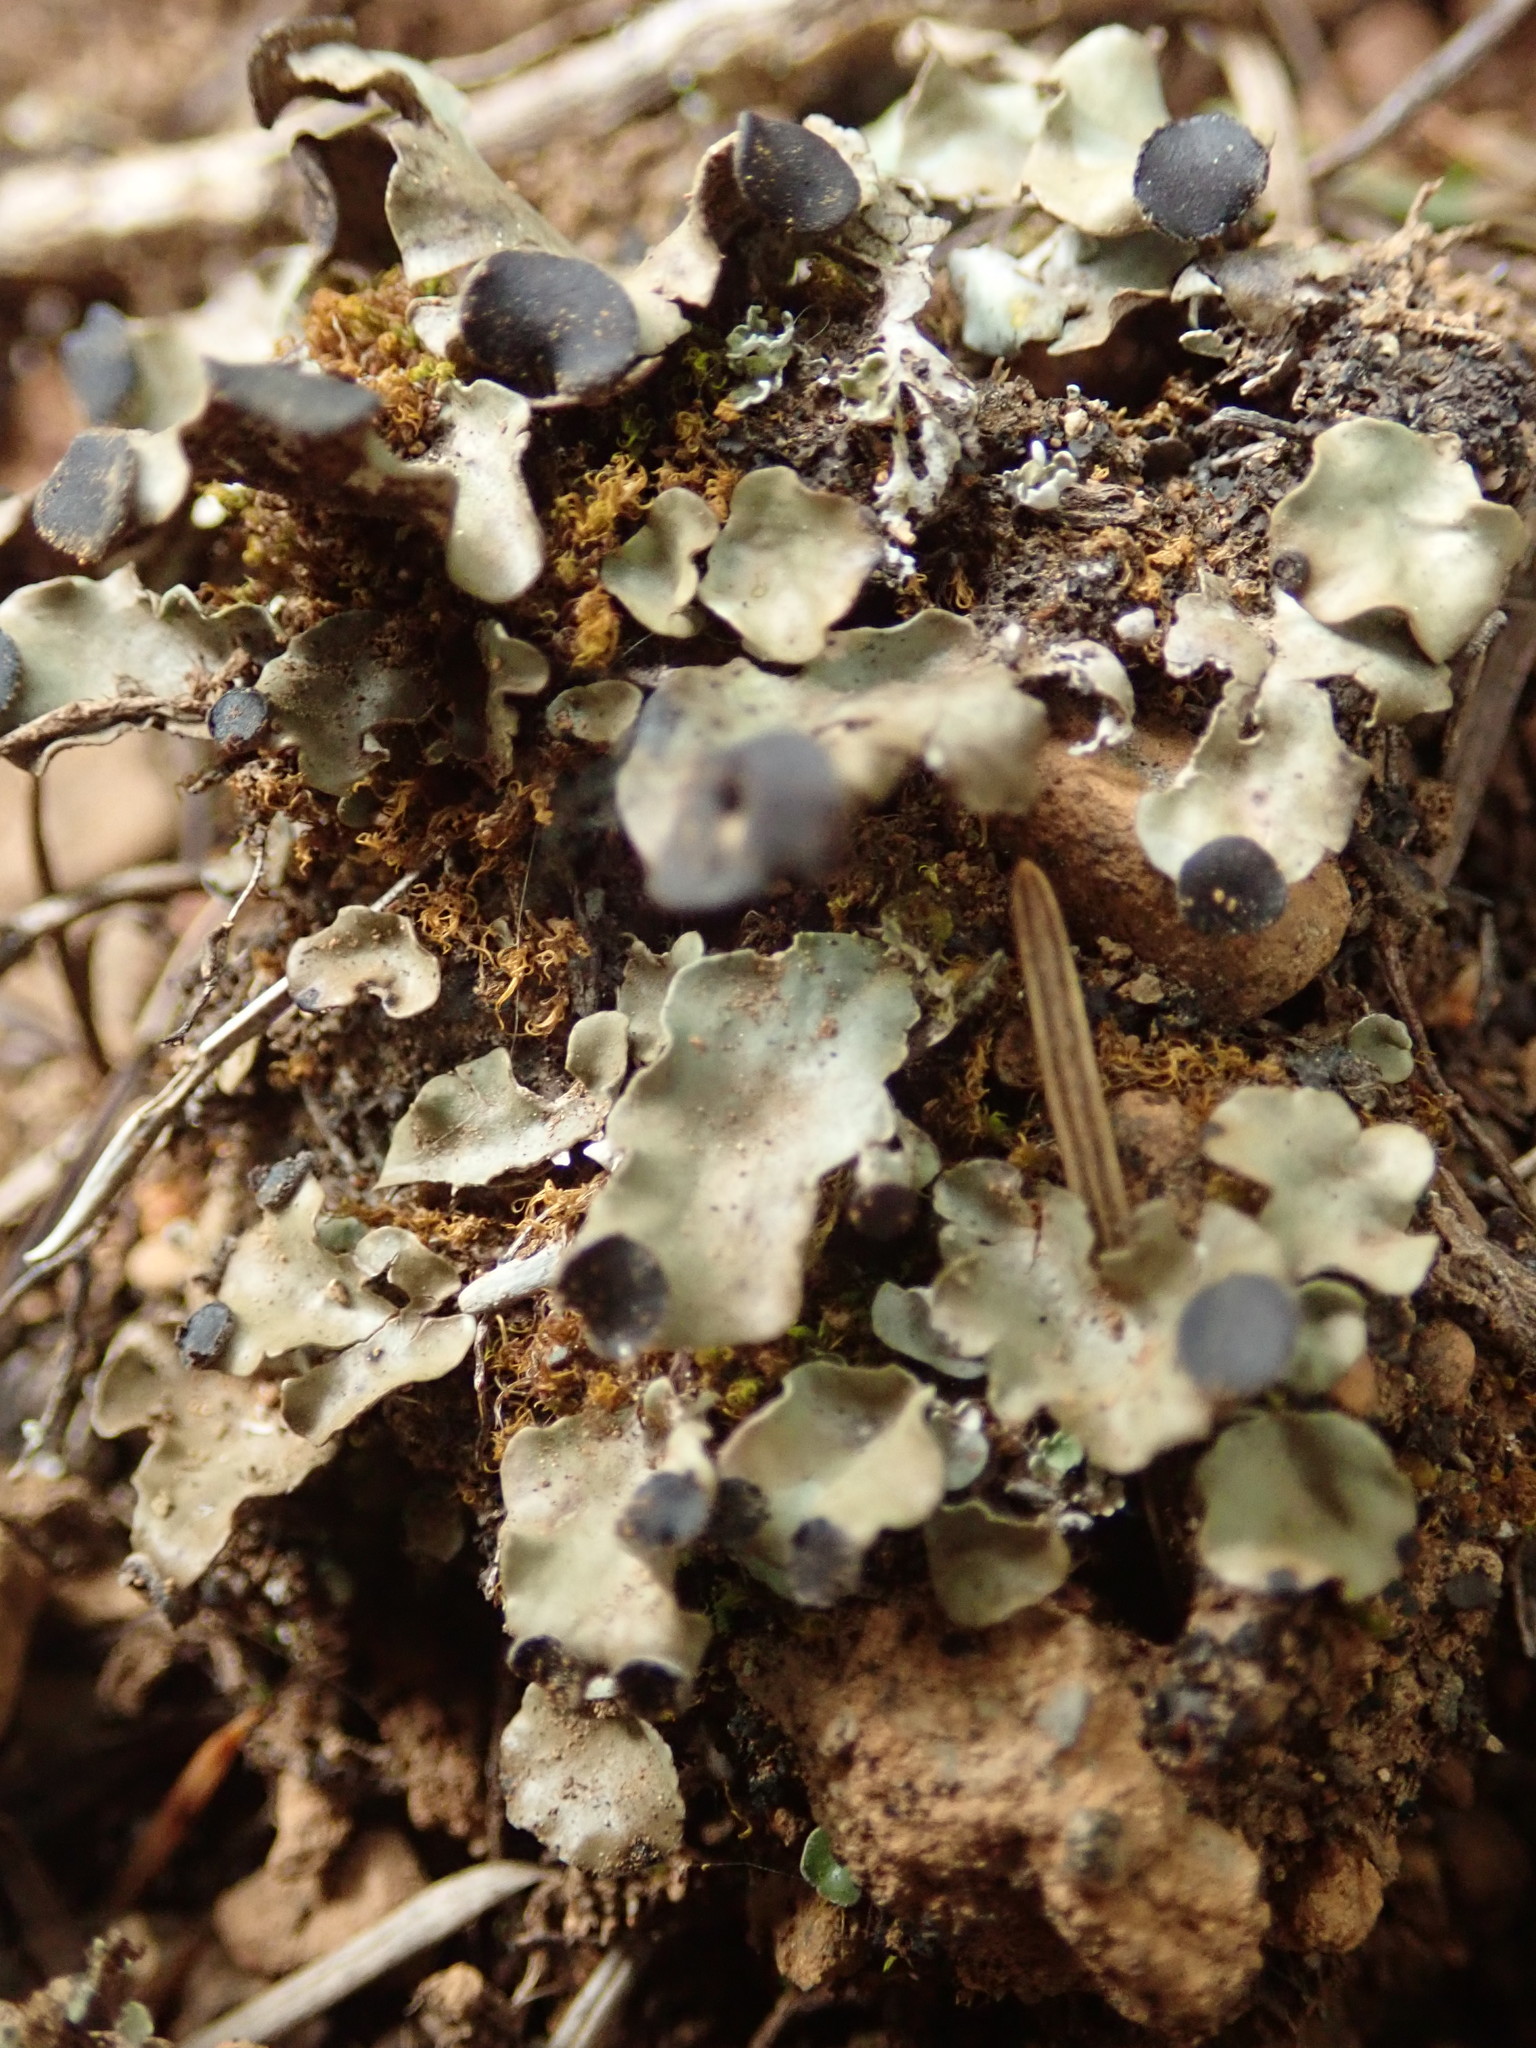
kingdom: Fungi
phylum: Ascomycota
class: Lecanoromycetes
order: Peltigerales
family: Peltigeraceae
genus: Peltigera
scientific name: Peltigera venosa
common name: Pixie gowns lichen
